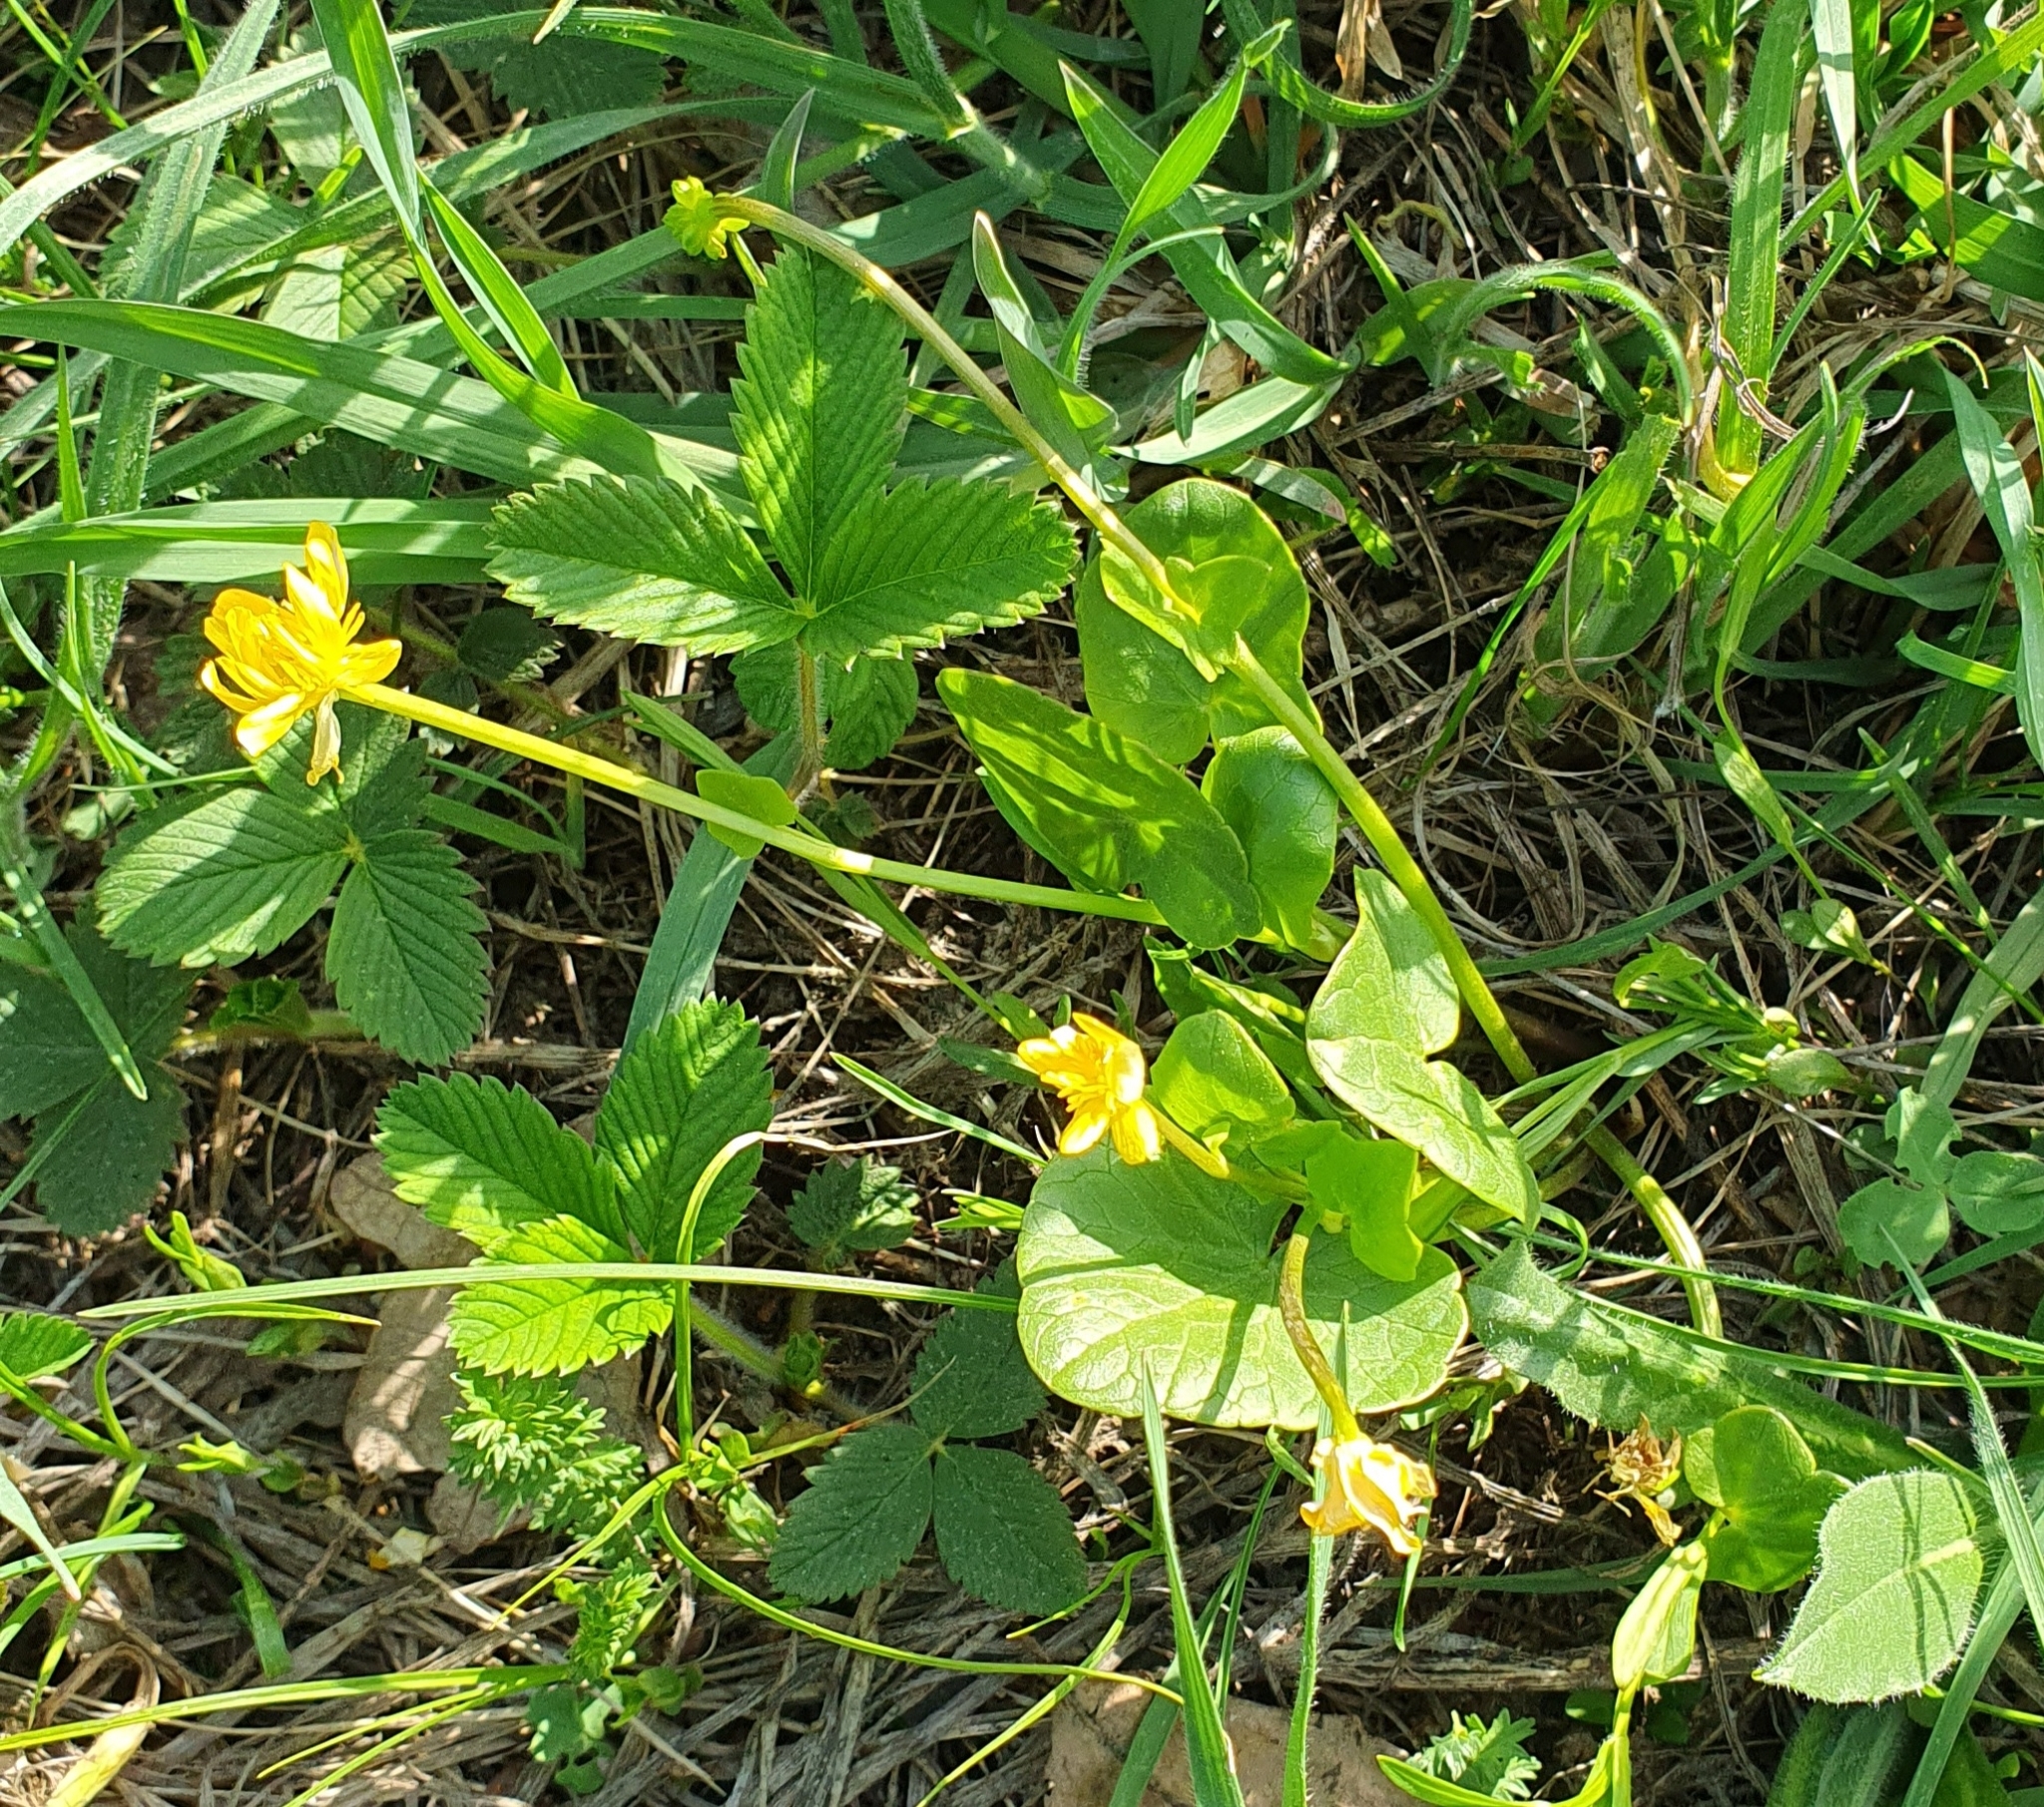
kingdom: Plantae
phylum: Tracheophyta
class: Magnoliopsida
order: Ranunculales
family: Ranunculaceae
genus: Ficaria
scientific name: Ficaria verna
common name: Lesser celandine
